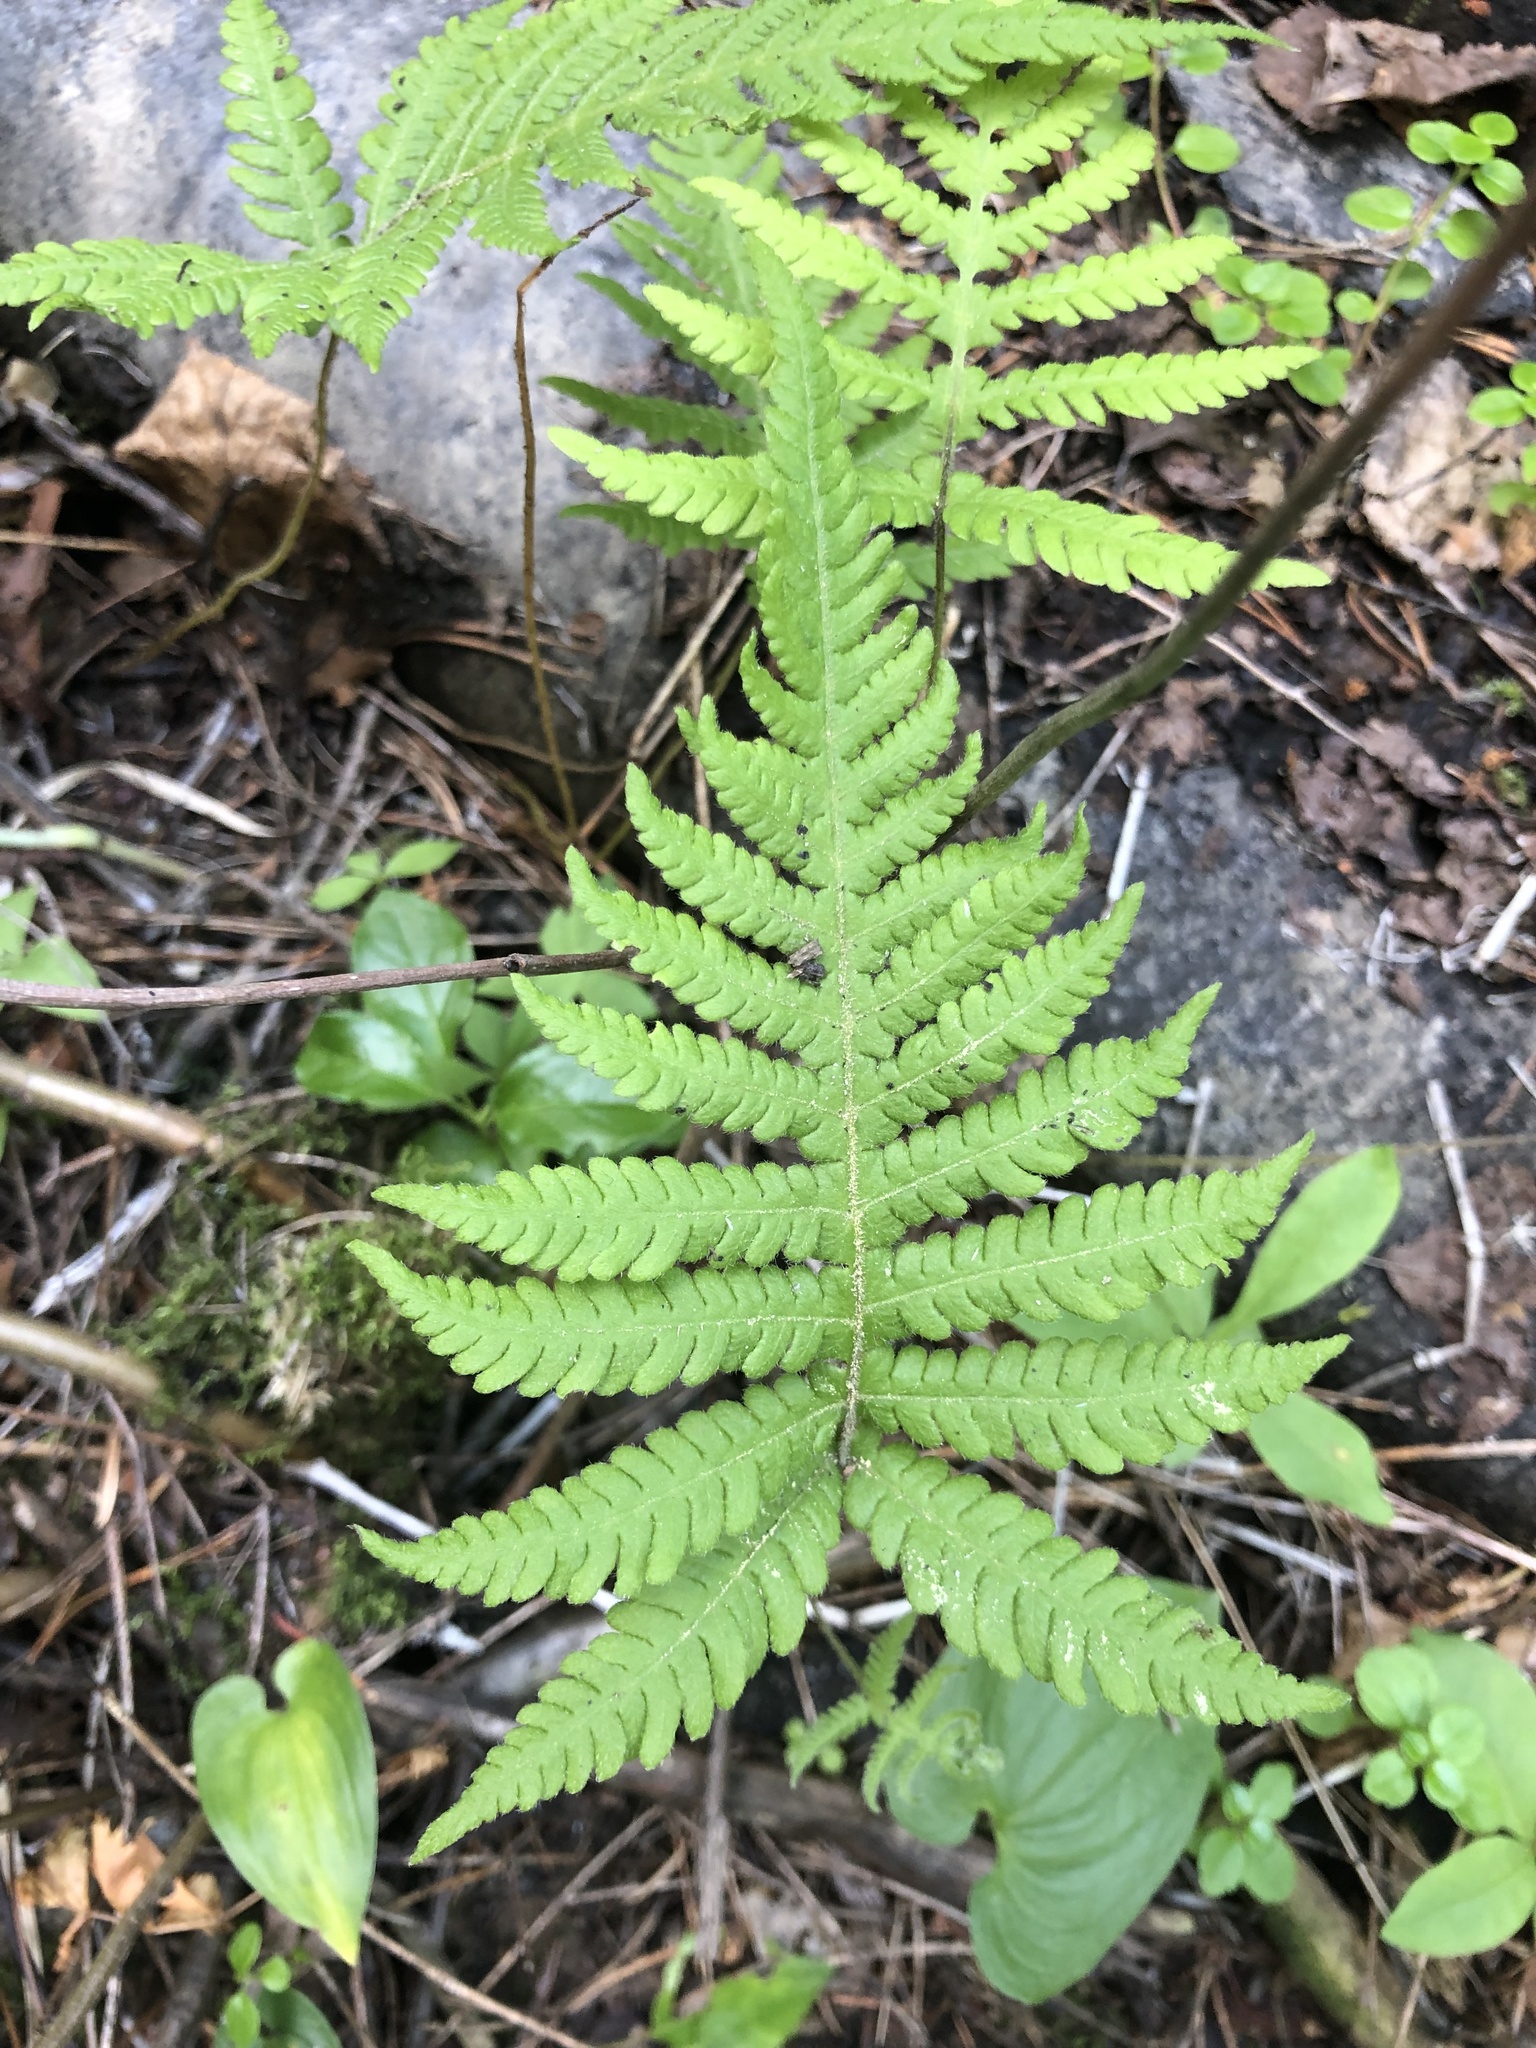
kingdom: Plantae
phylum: Tracheophyta
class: Polypodiopsida
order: Polypodiales
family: Thelypteridaceae
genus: Phegopteris
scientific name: Phegopteris connectilis
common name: Beech fern
